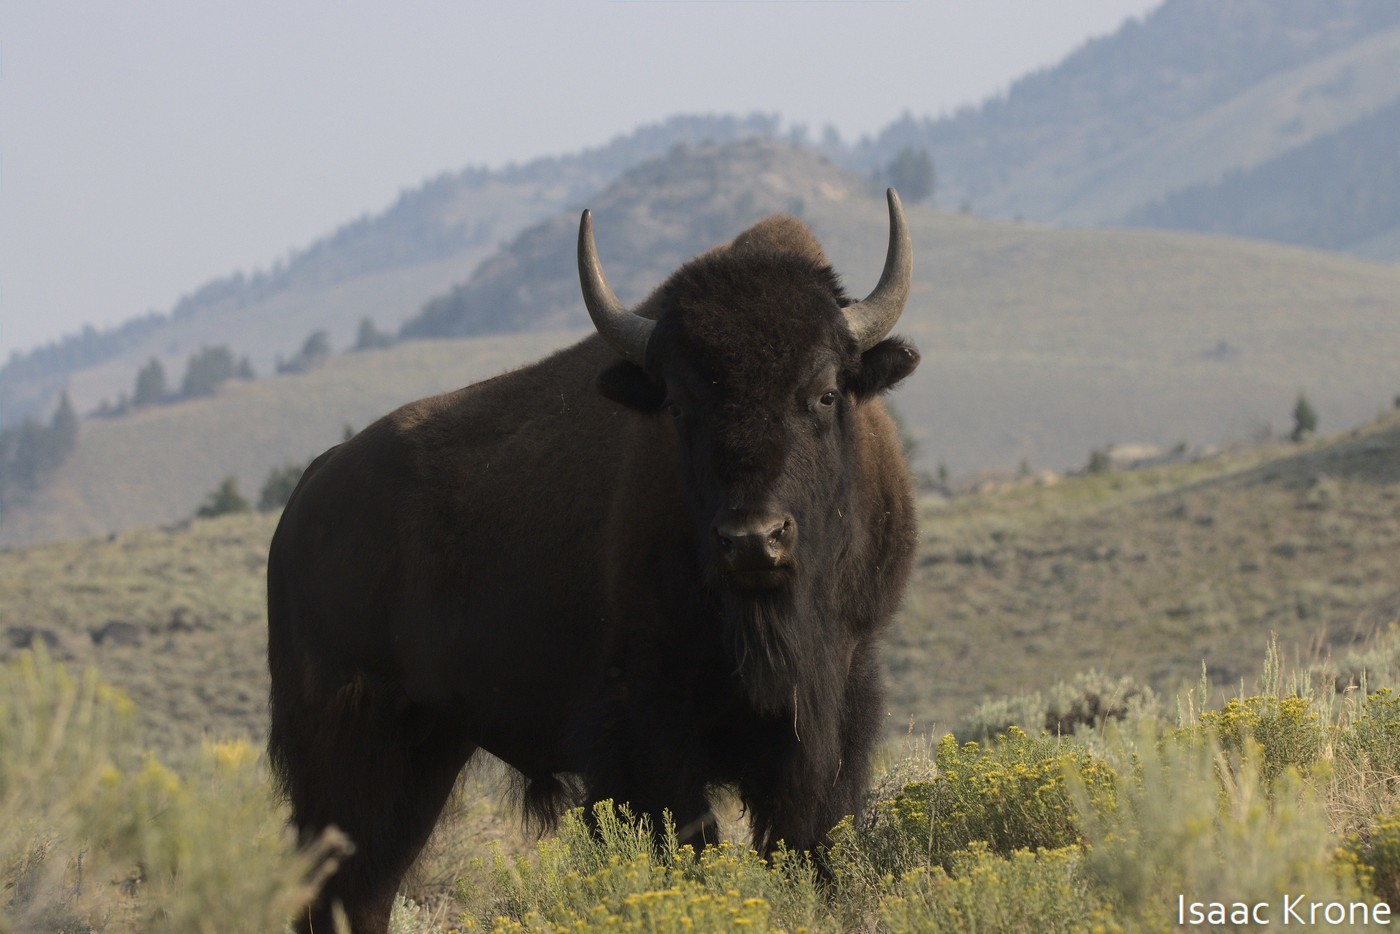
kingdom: Animalia
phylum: Chordata
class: Mammalia
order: Artiodactyla
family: Bovidae
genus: Bison
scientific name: Bison bison
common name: American bison
